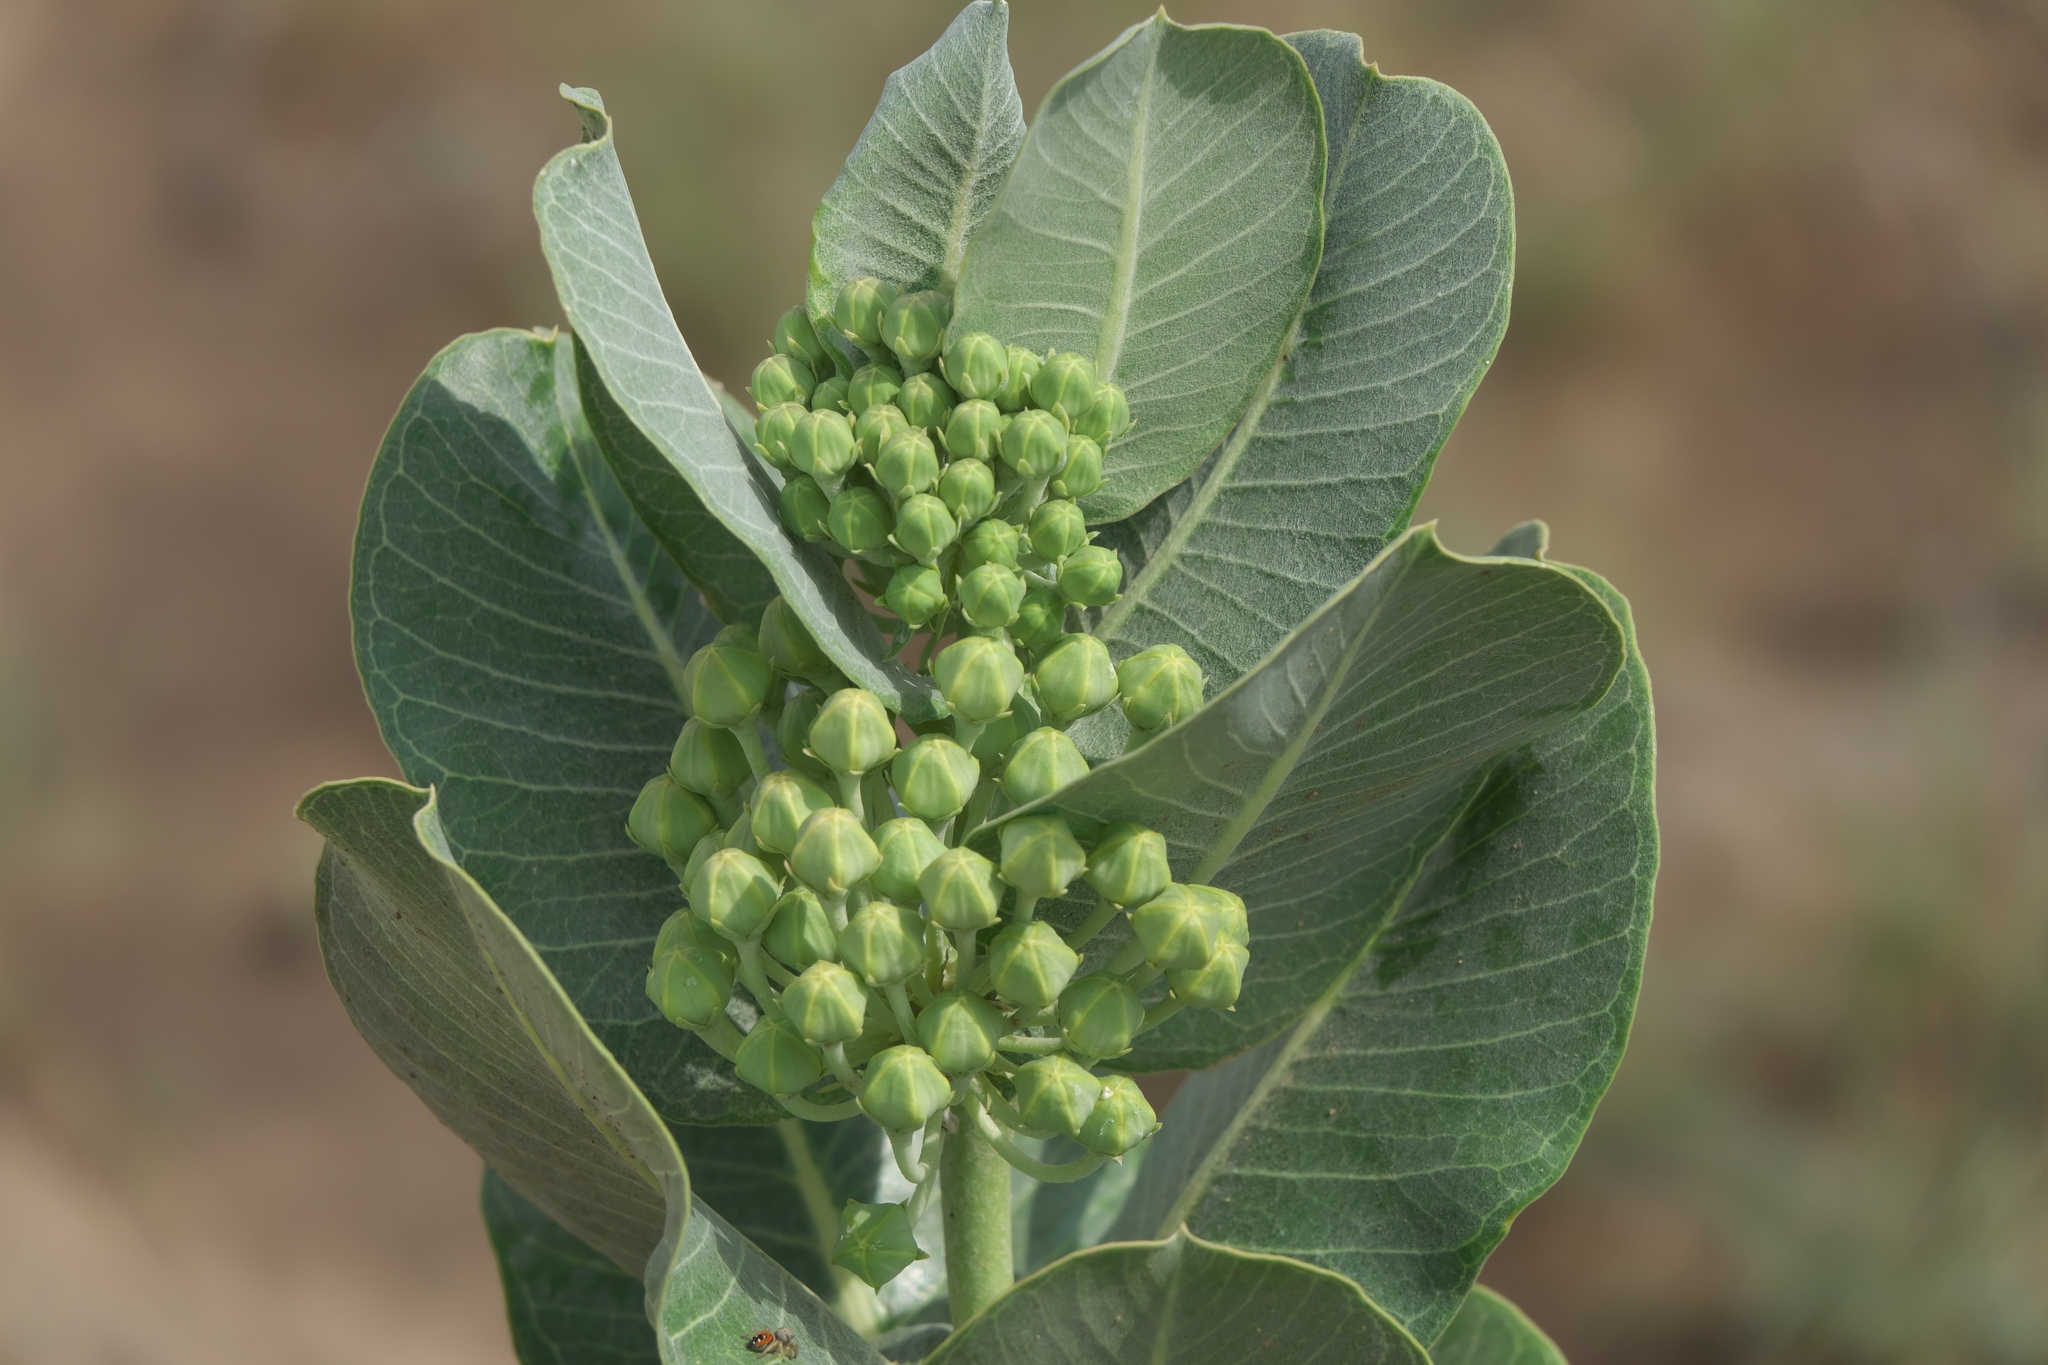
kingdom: Plantae
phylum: Tracheophyta
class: Magnoliopsida
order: Gentianales
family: Apocynaceae
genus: Asclepias
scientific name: Asclepias latifolia
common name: Broadleaf milkweed
